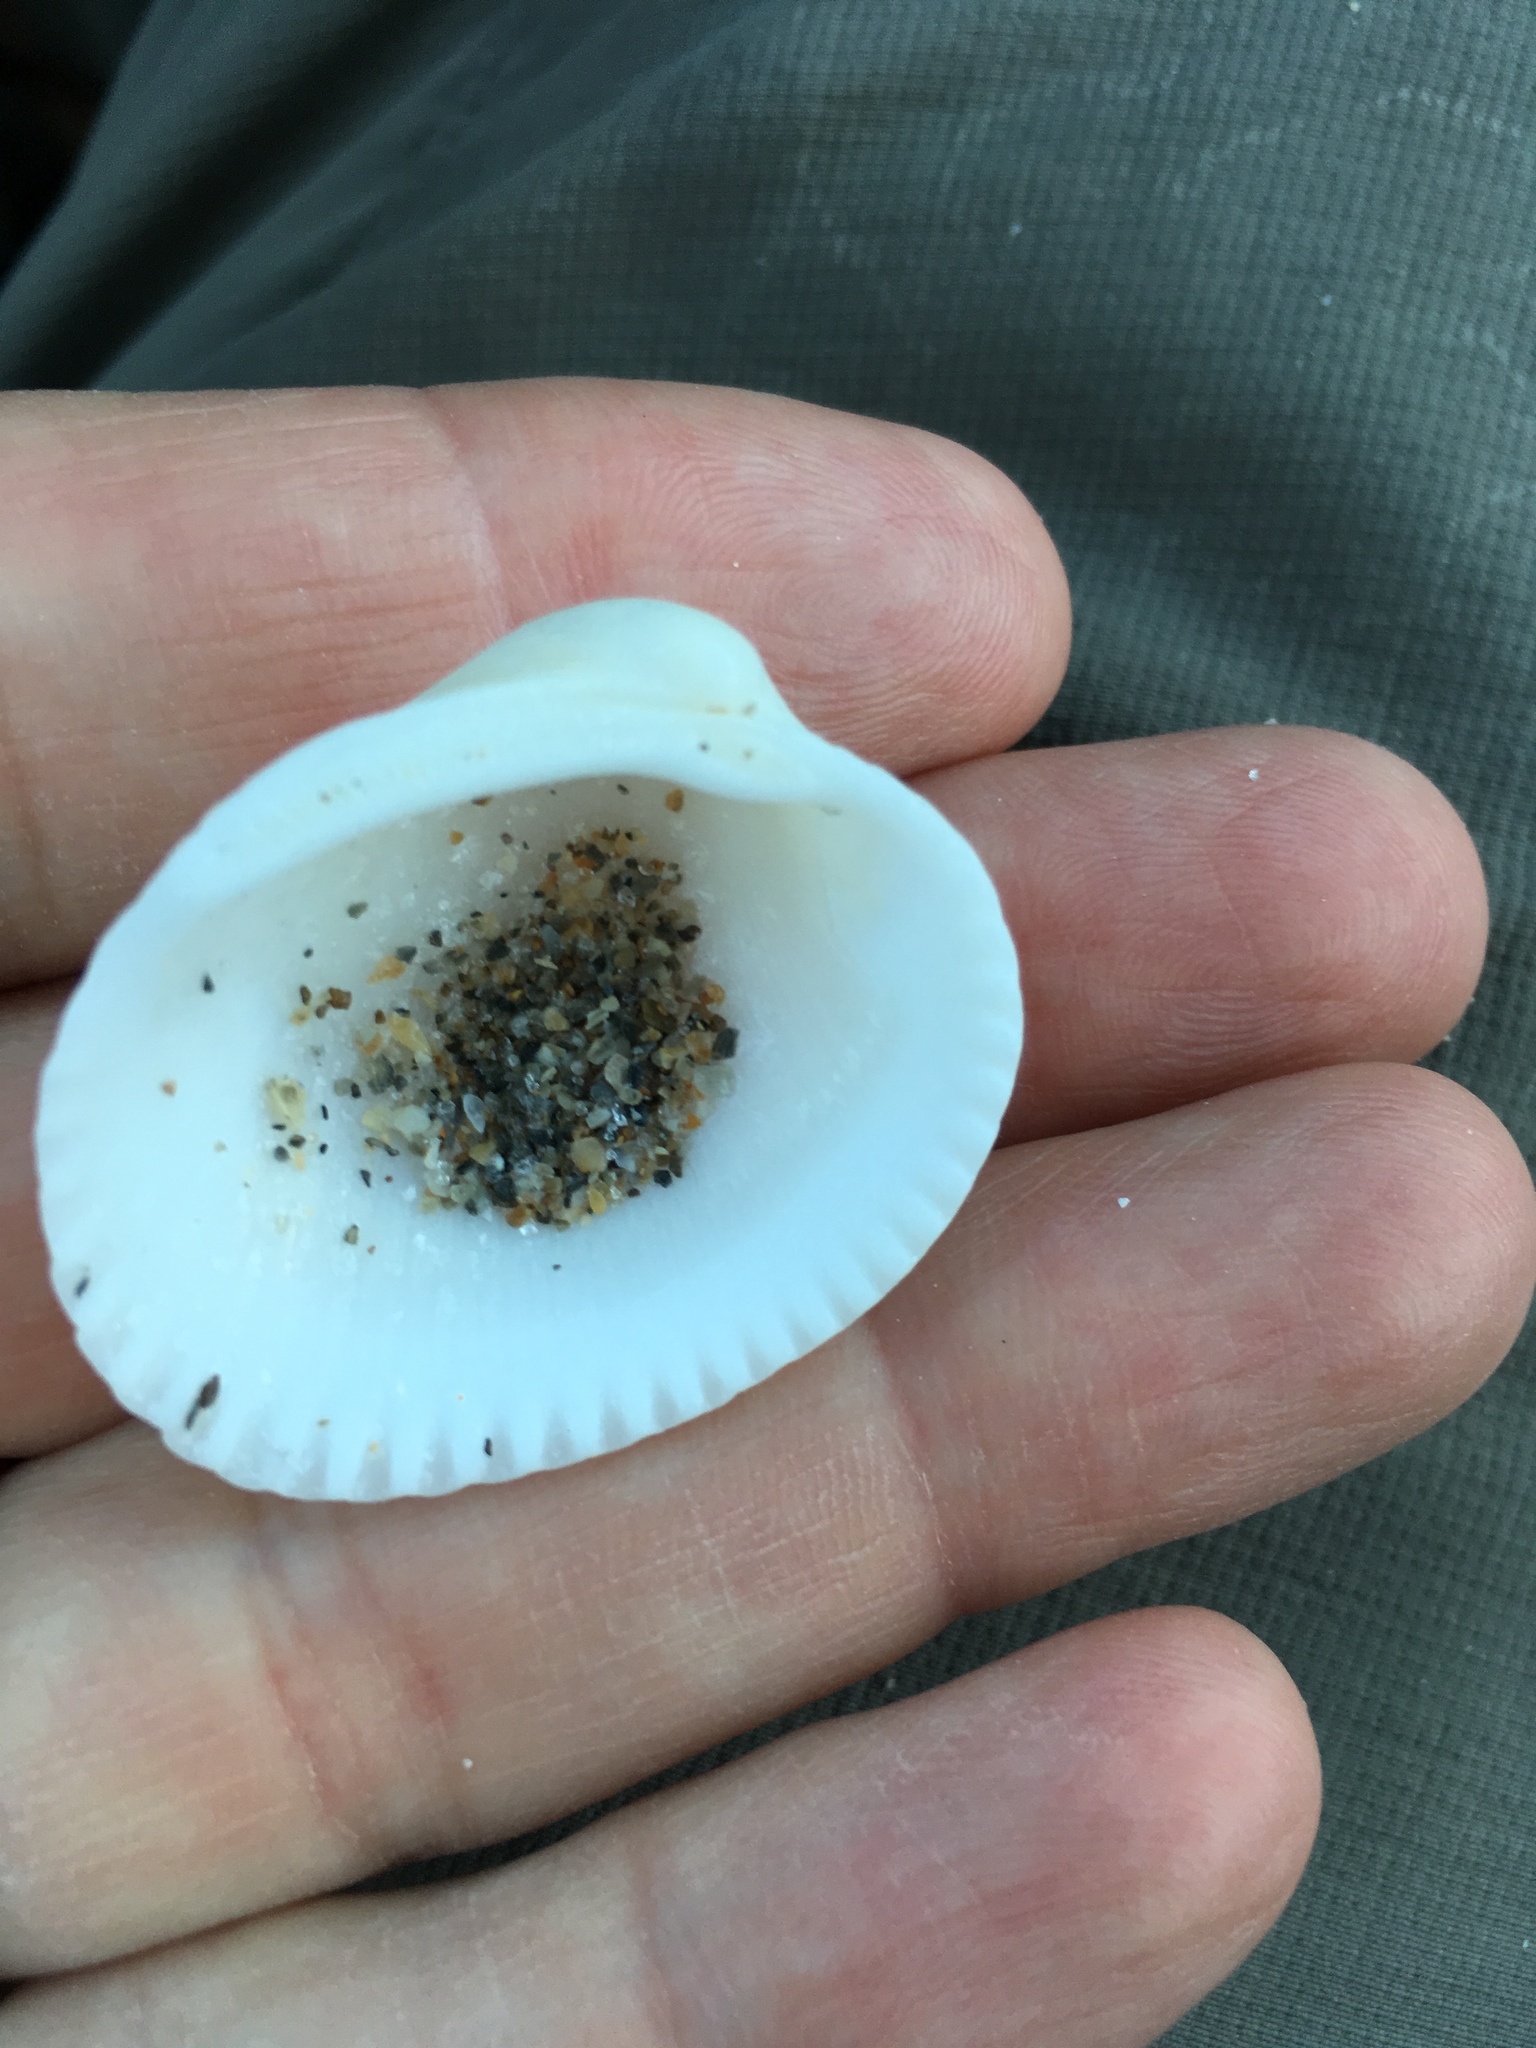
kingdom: Animalia
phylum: Mollusca
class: Bivalvia
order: Arcida
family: Arcidae
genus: Lunarca
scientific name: Lunarca ovalis
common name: Blood ark
